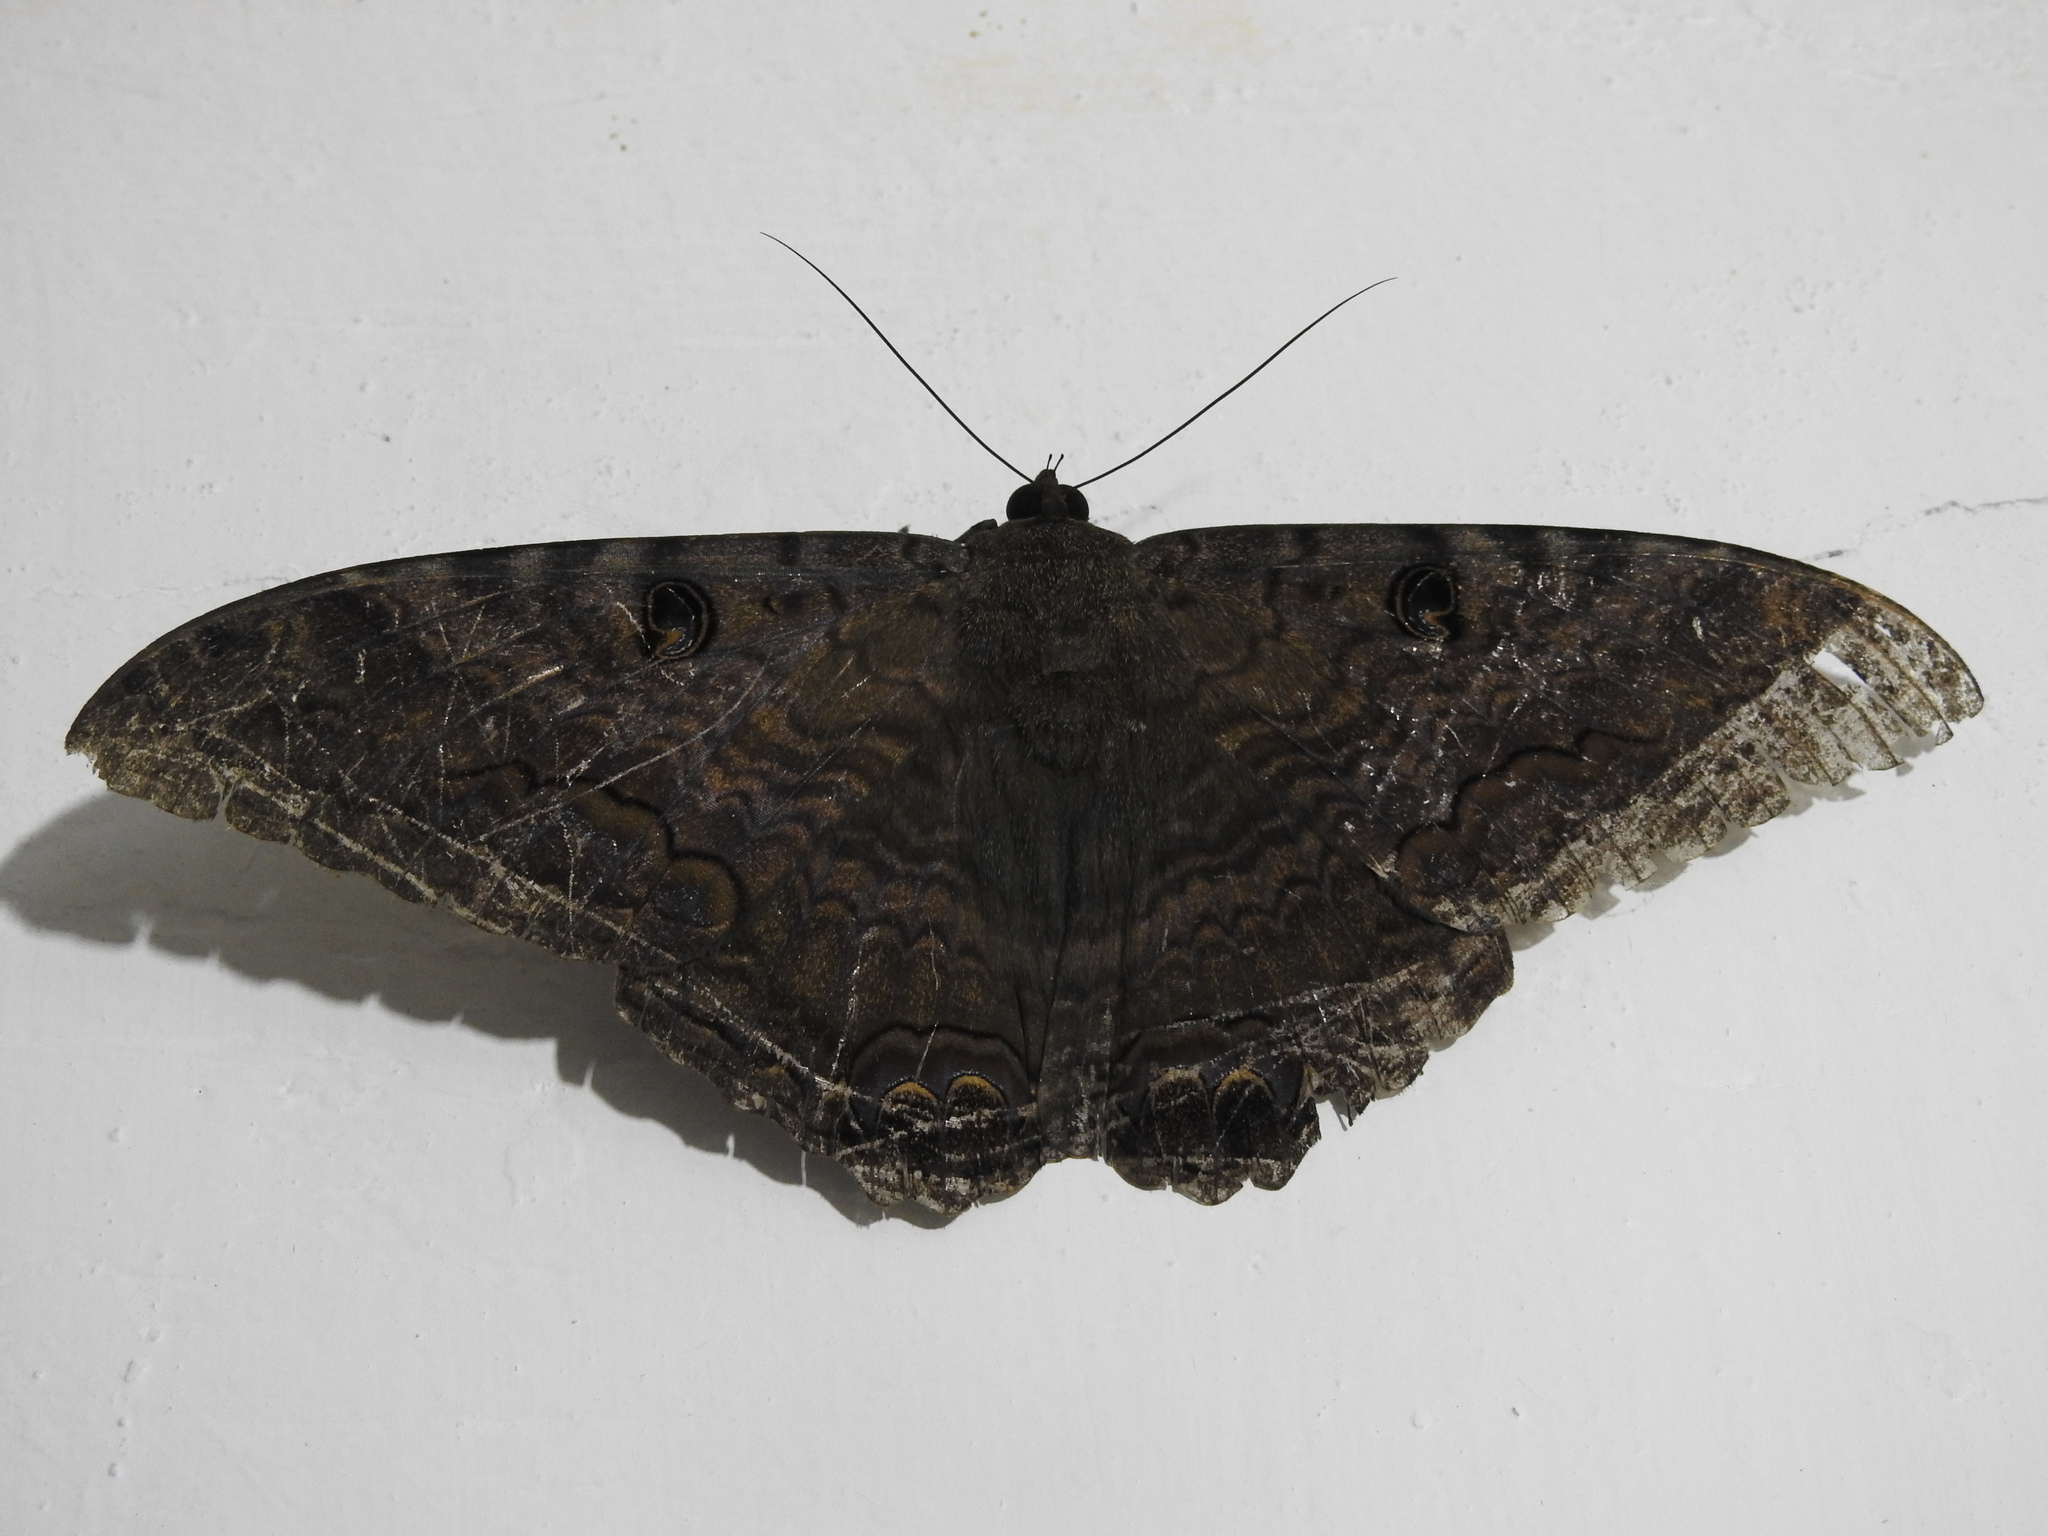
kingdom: Animalia
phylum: Arthropoda
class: Insecta
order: Lepidoptera
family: Erebidae
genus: Ascalapha
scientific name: Ascalapha odorata
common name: Black witch
